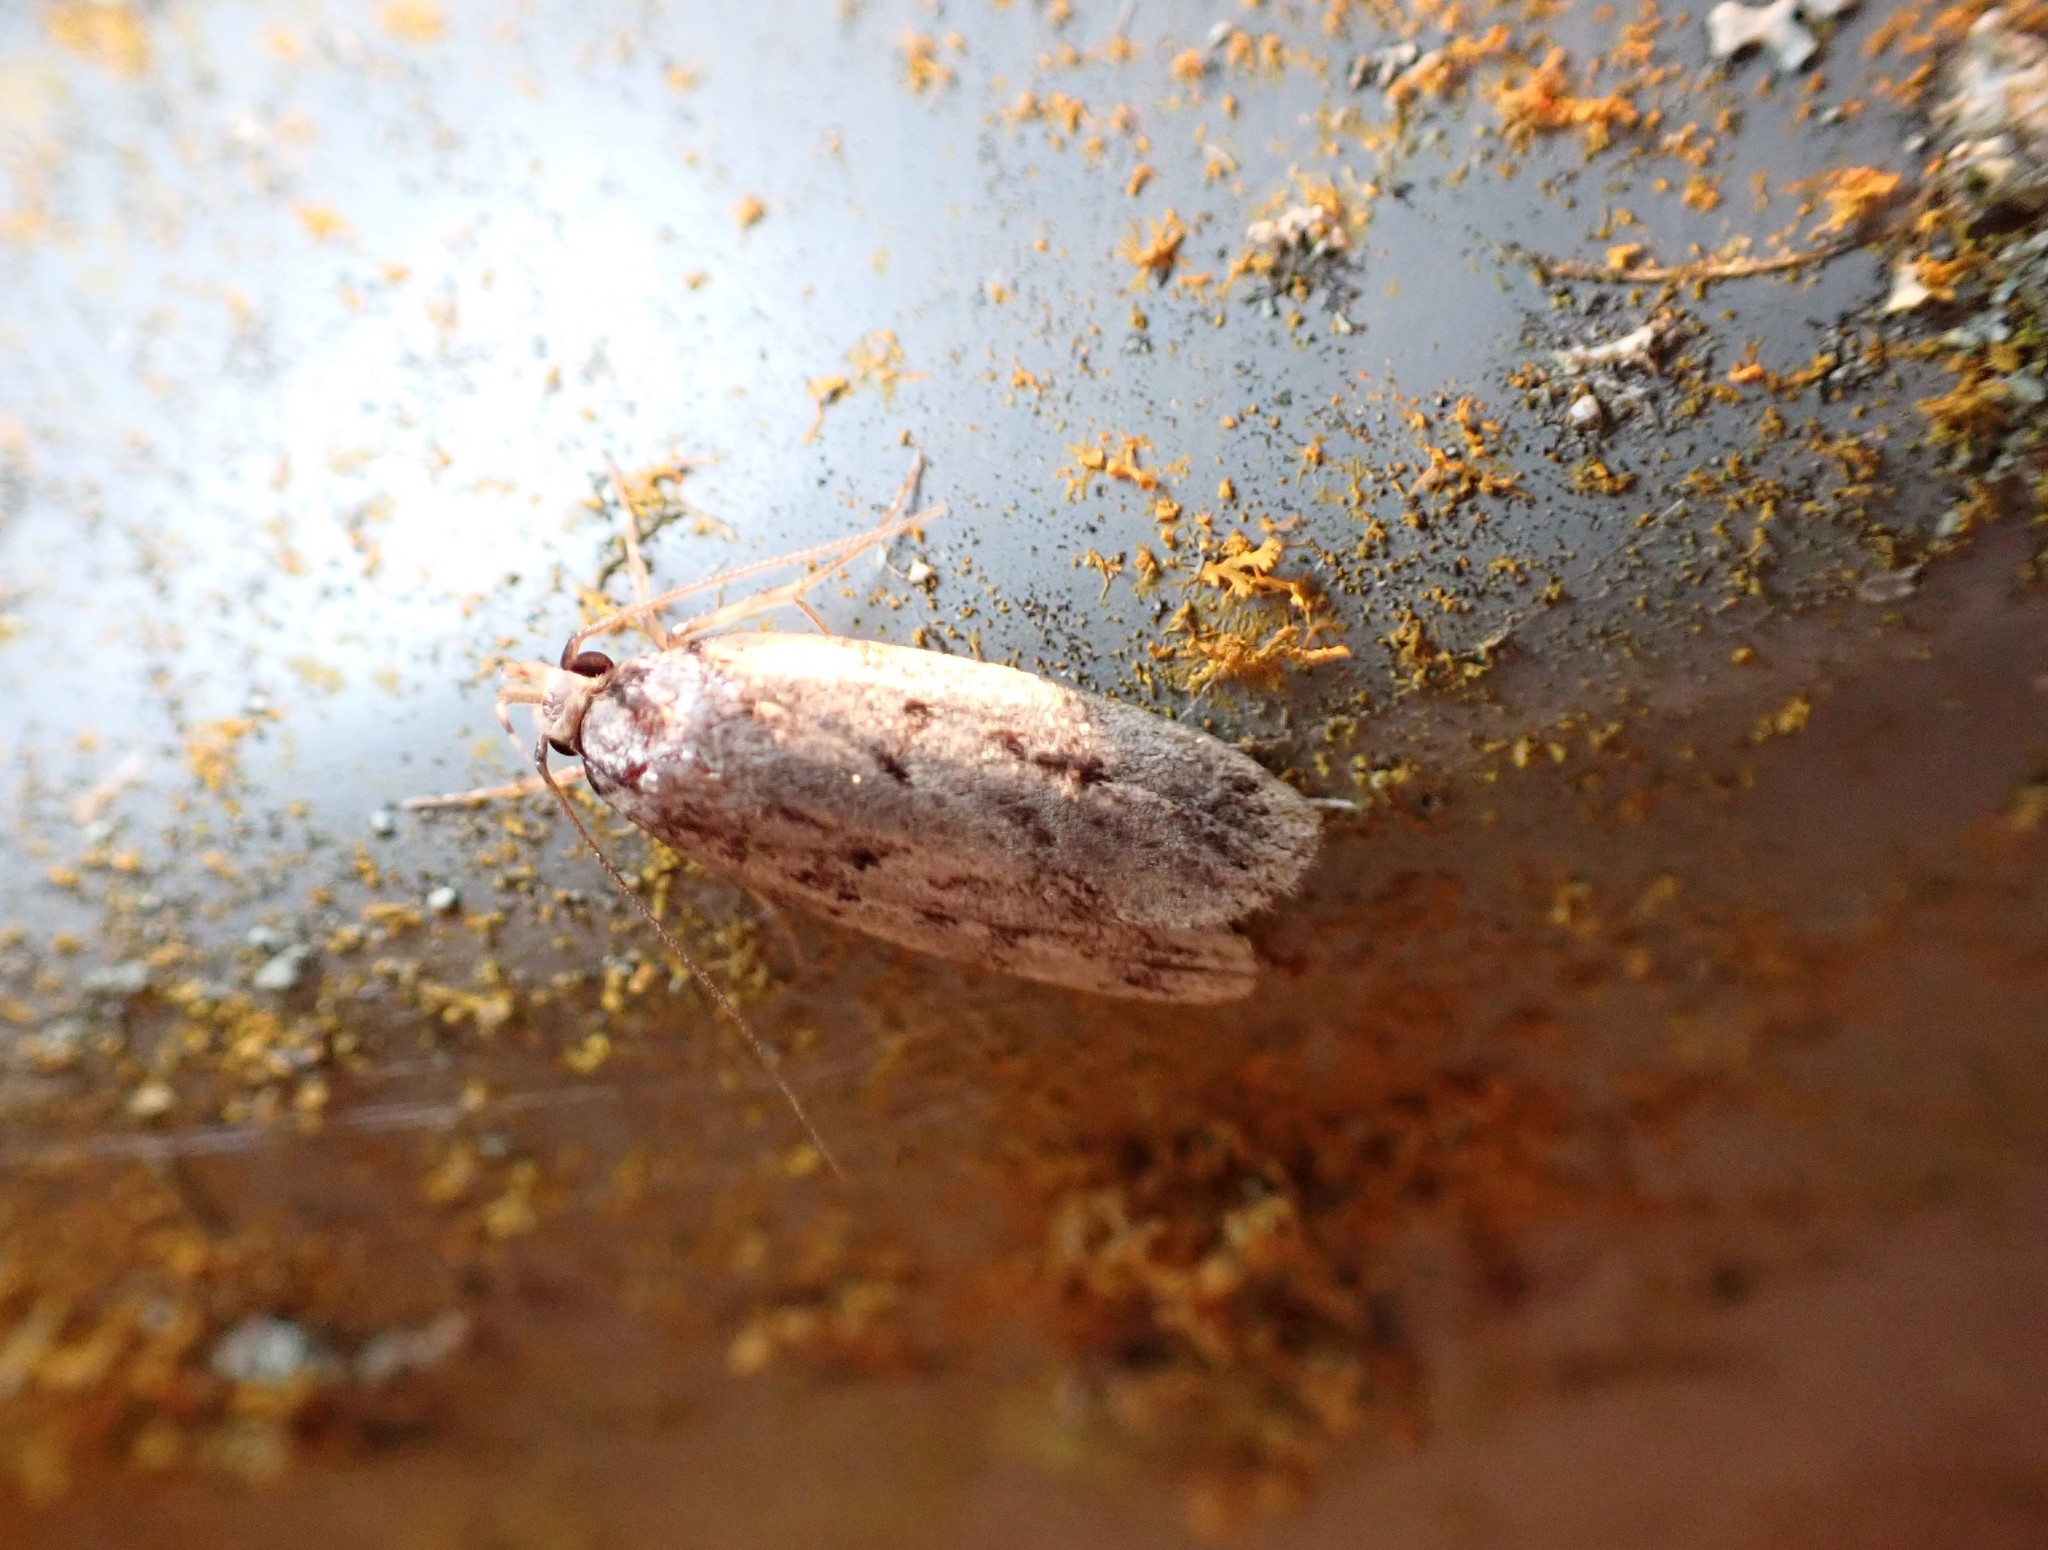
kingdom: Animalia
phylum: Arthropoda
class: Insecta
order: Lepidoptera
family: Oecophoridae
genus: Barea
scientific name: Barea
